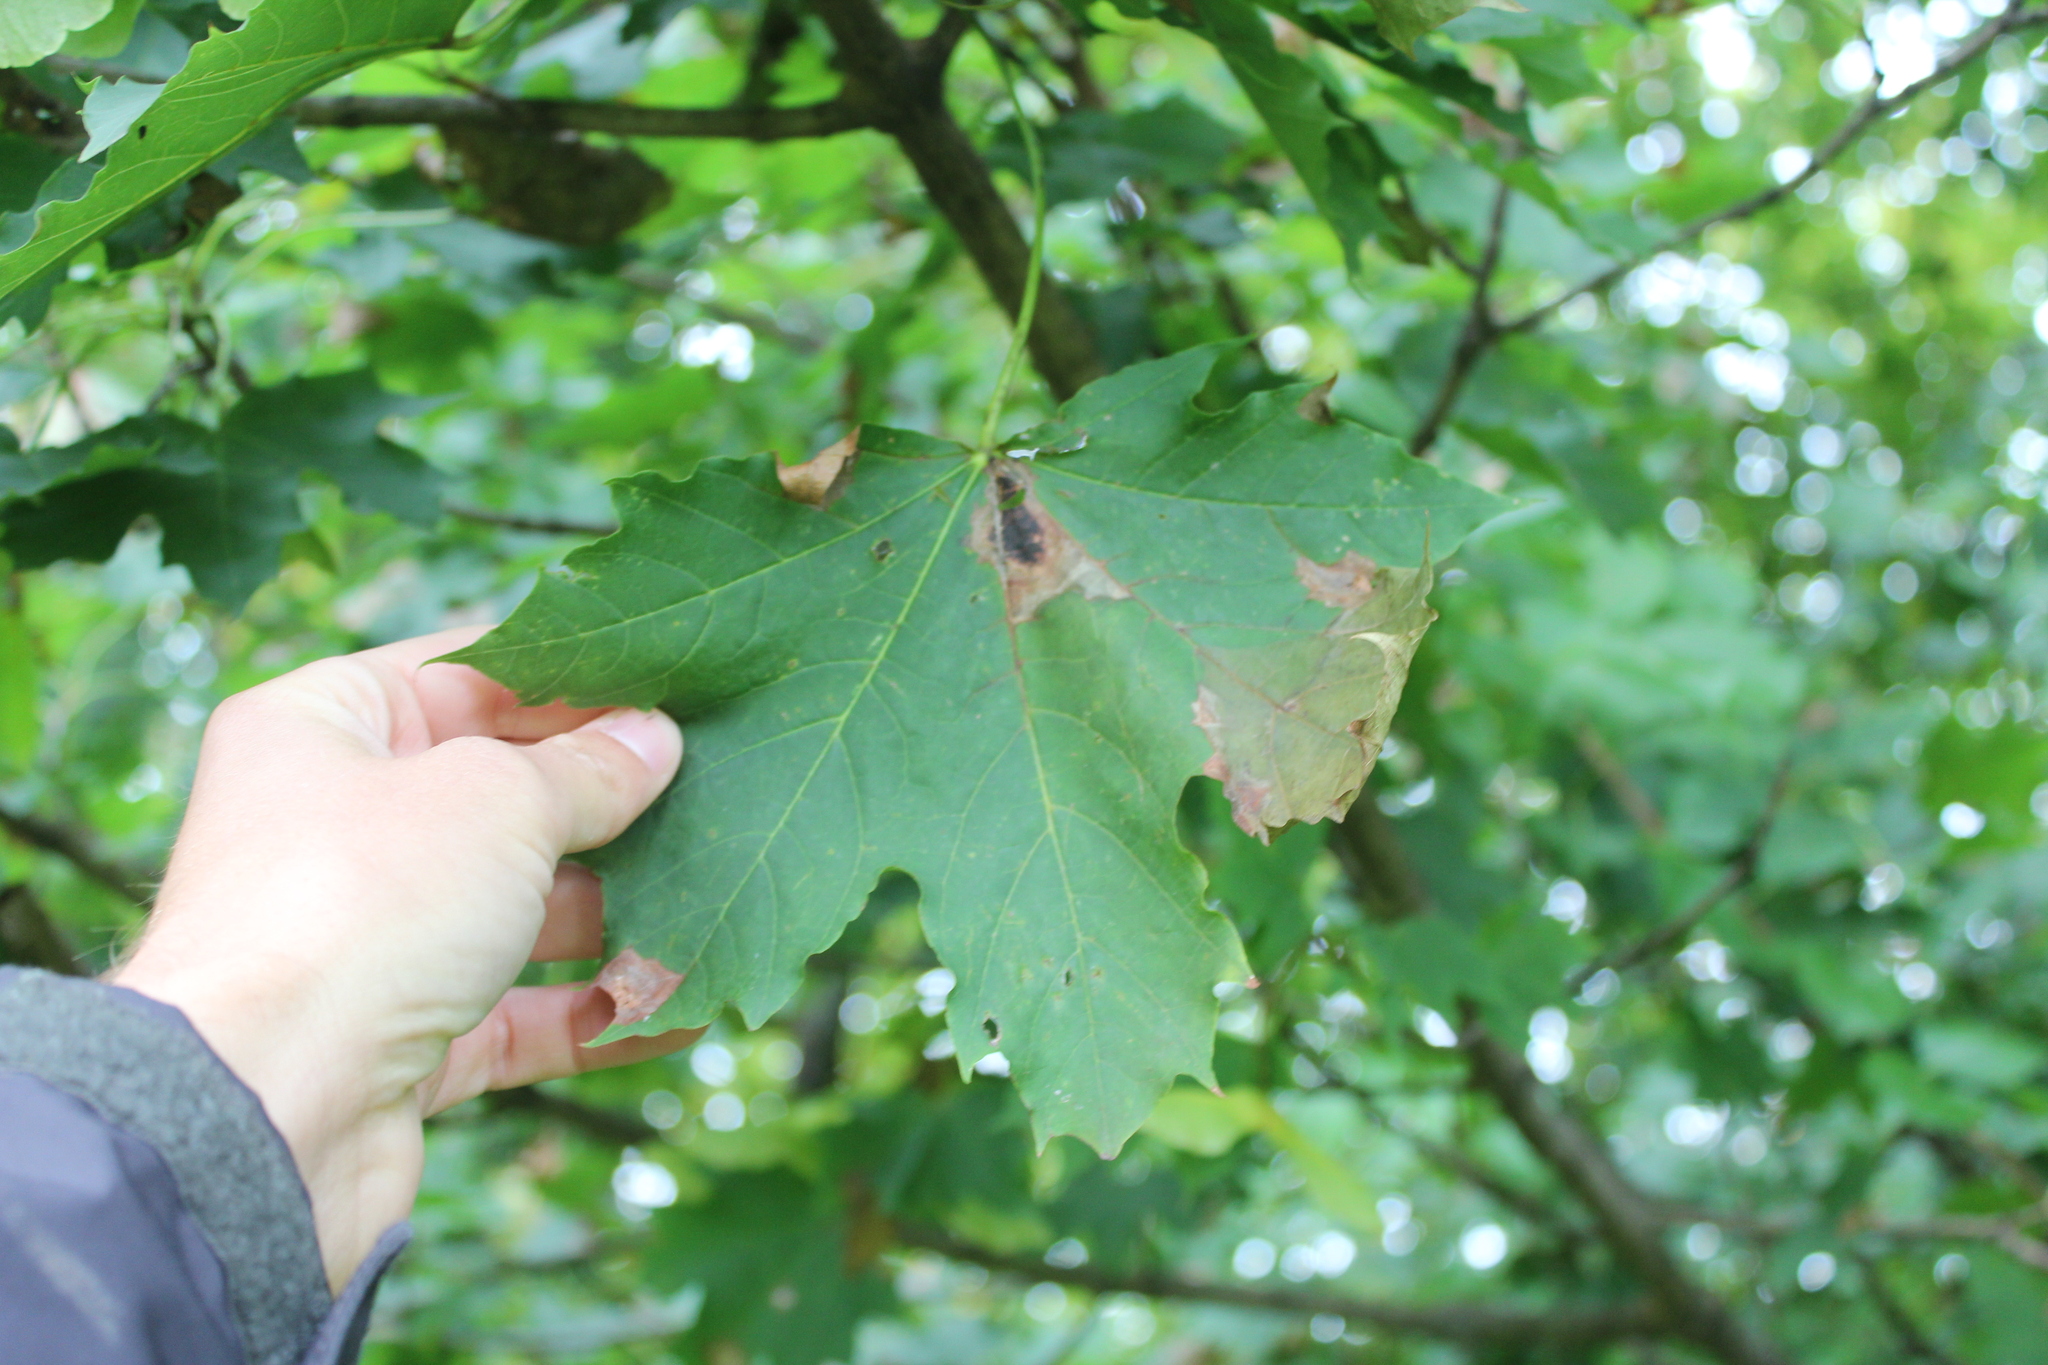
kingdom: Plantae
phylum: Tracheophyta
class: Magnoliopsida
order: Sapindales
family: Sapindaceae
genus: Acer
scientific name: Acer platanoides
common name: Norway maple
